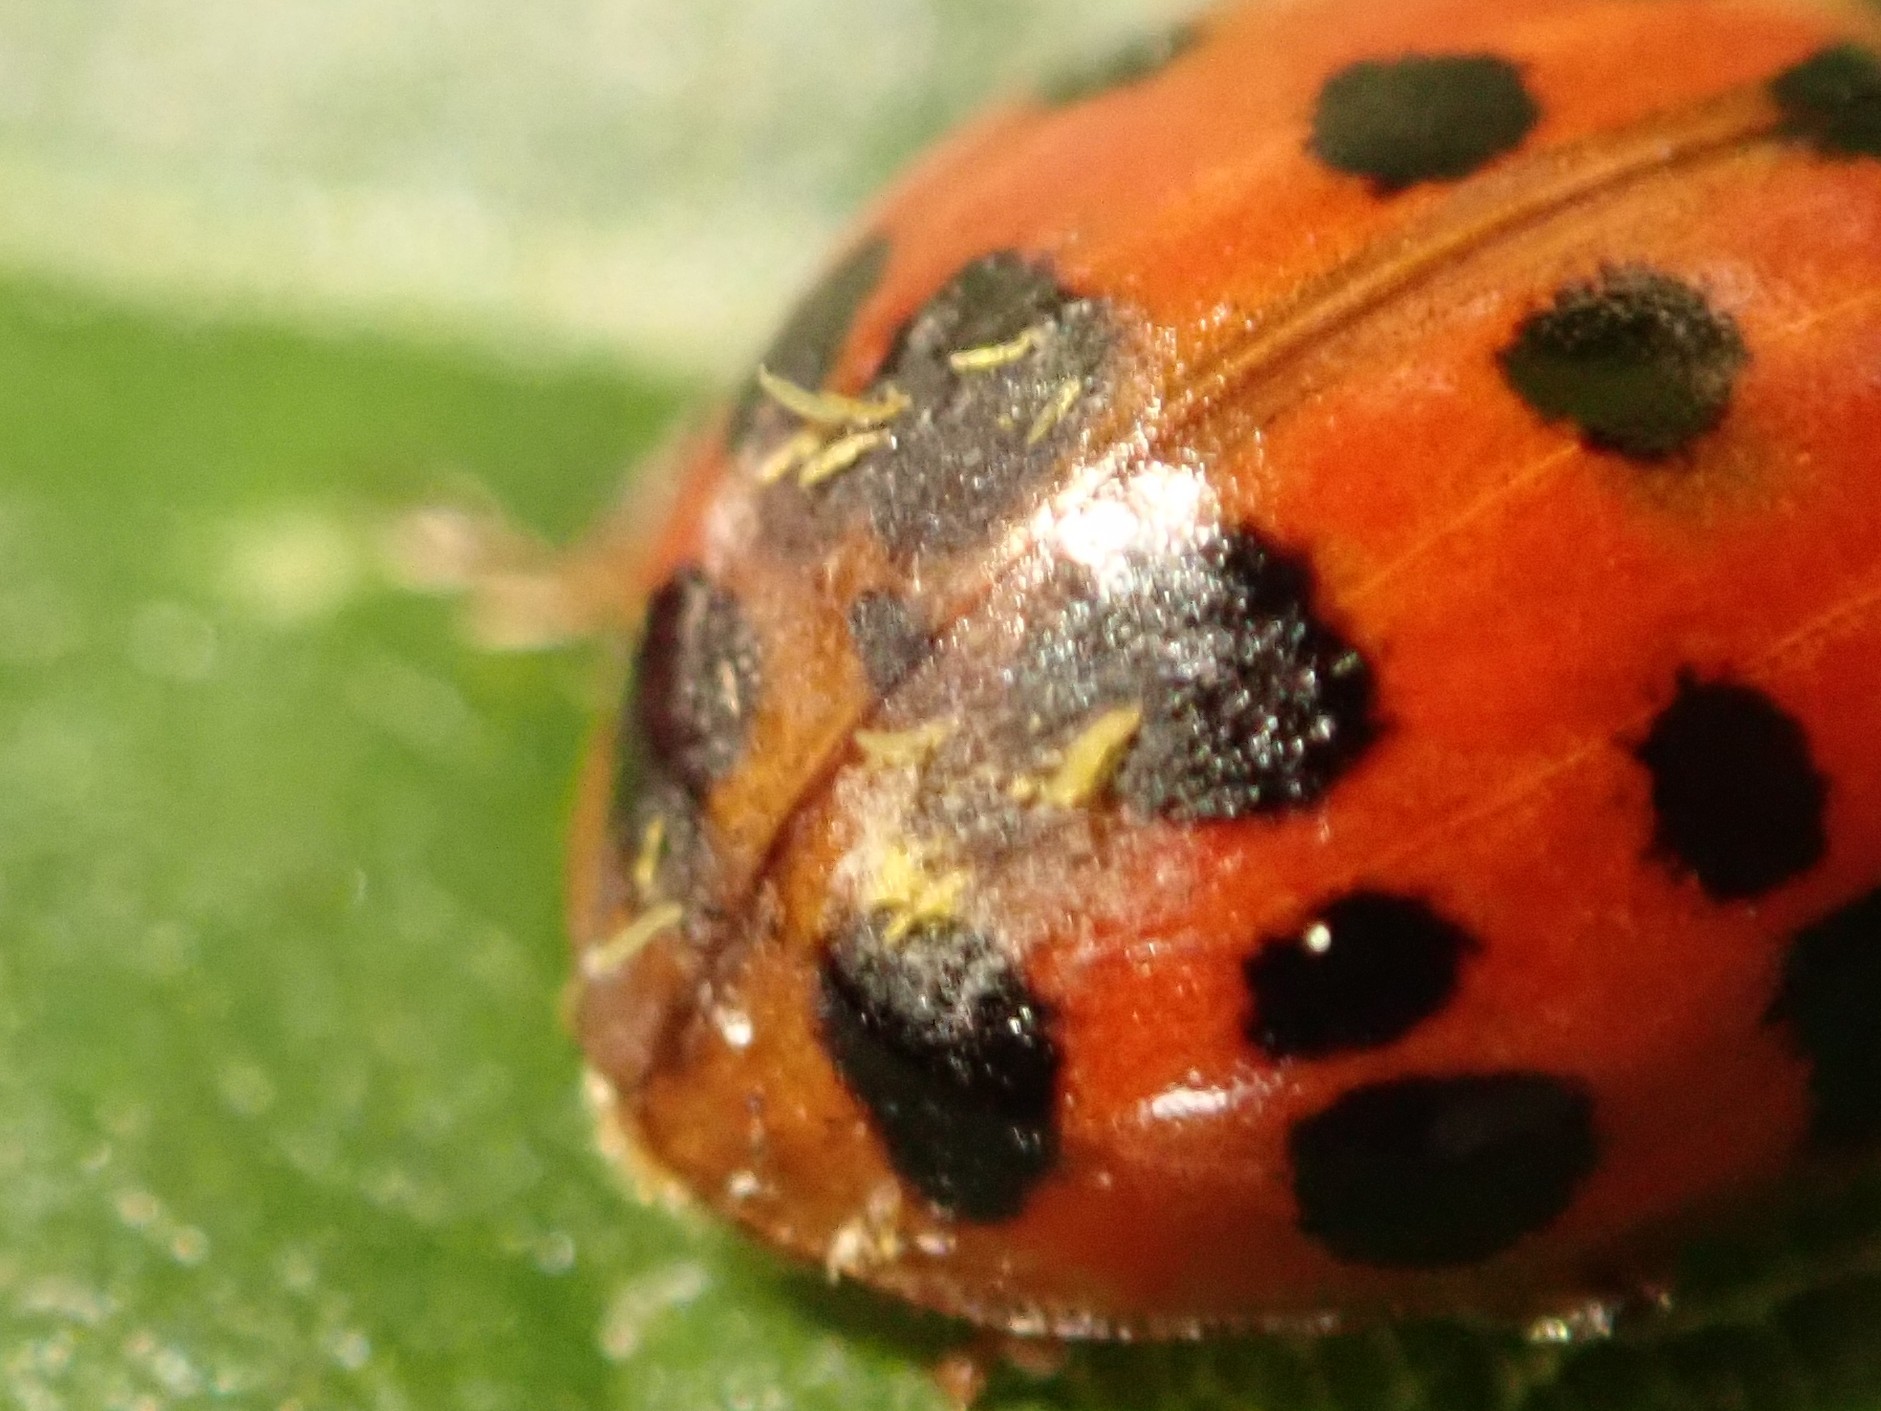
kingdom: Fungi
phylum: Ascomycota
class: Laboulbeniomycetes
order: Laboulbeniales
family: Laboulbeniaceae
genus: Hesperomyces
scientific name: Hesperomyces harmoniae
